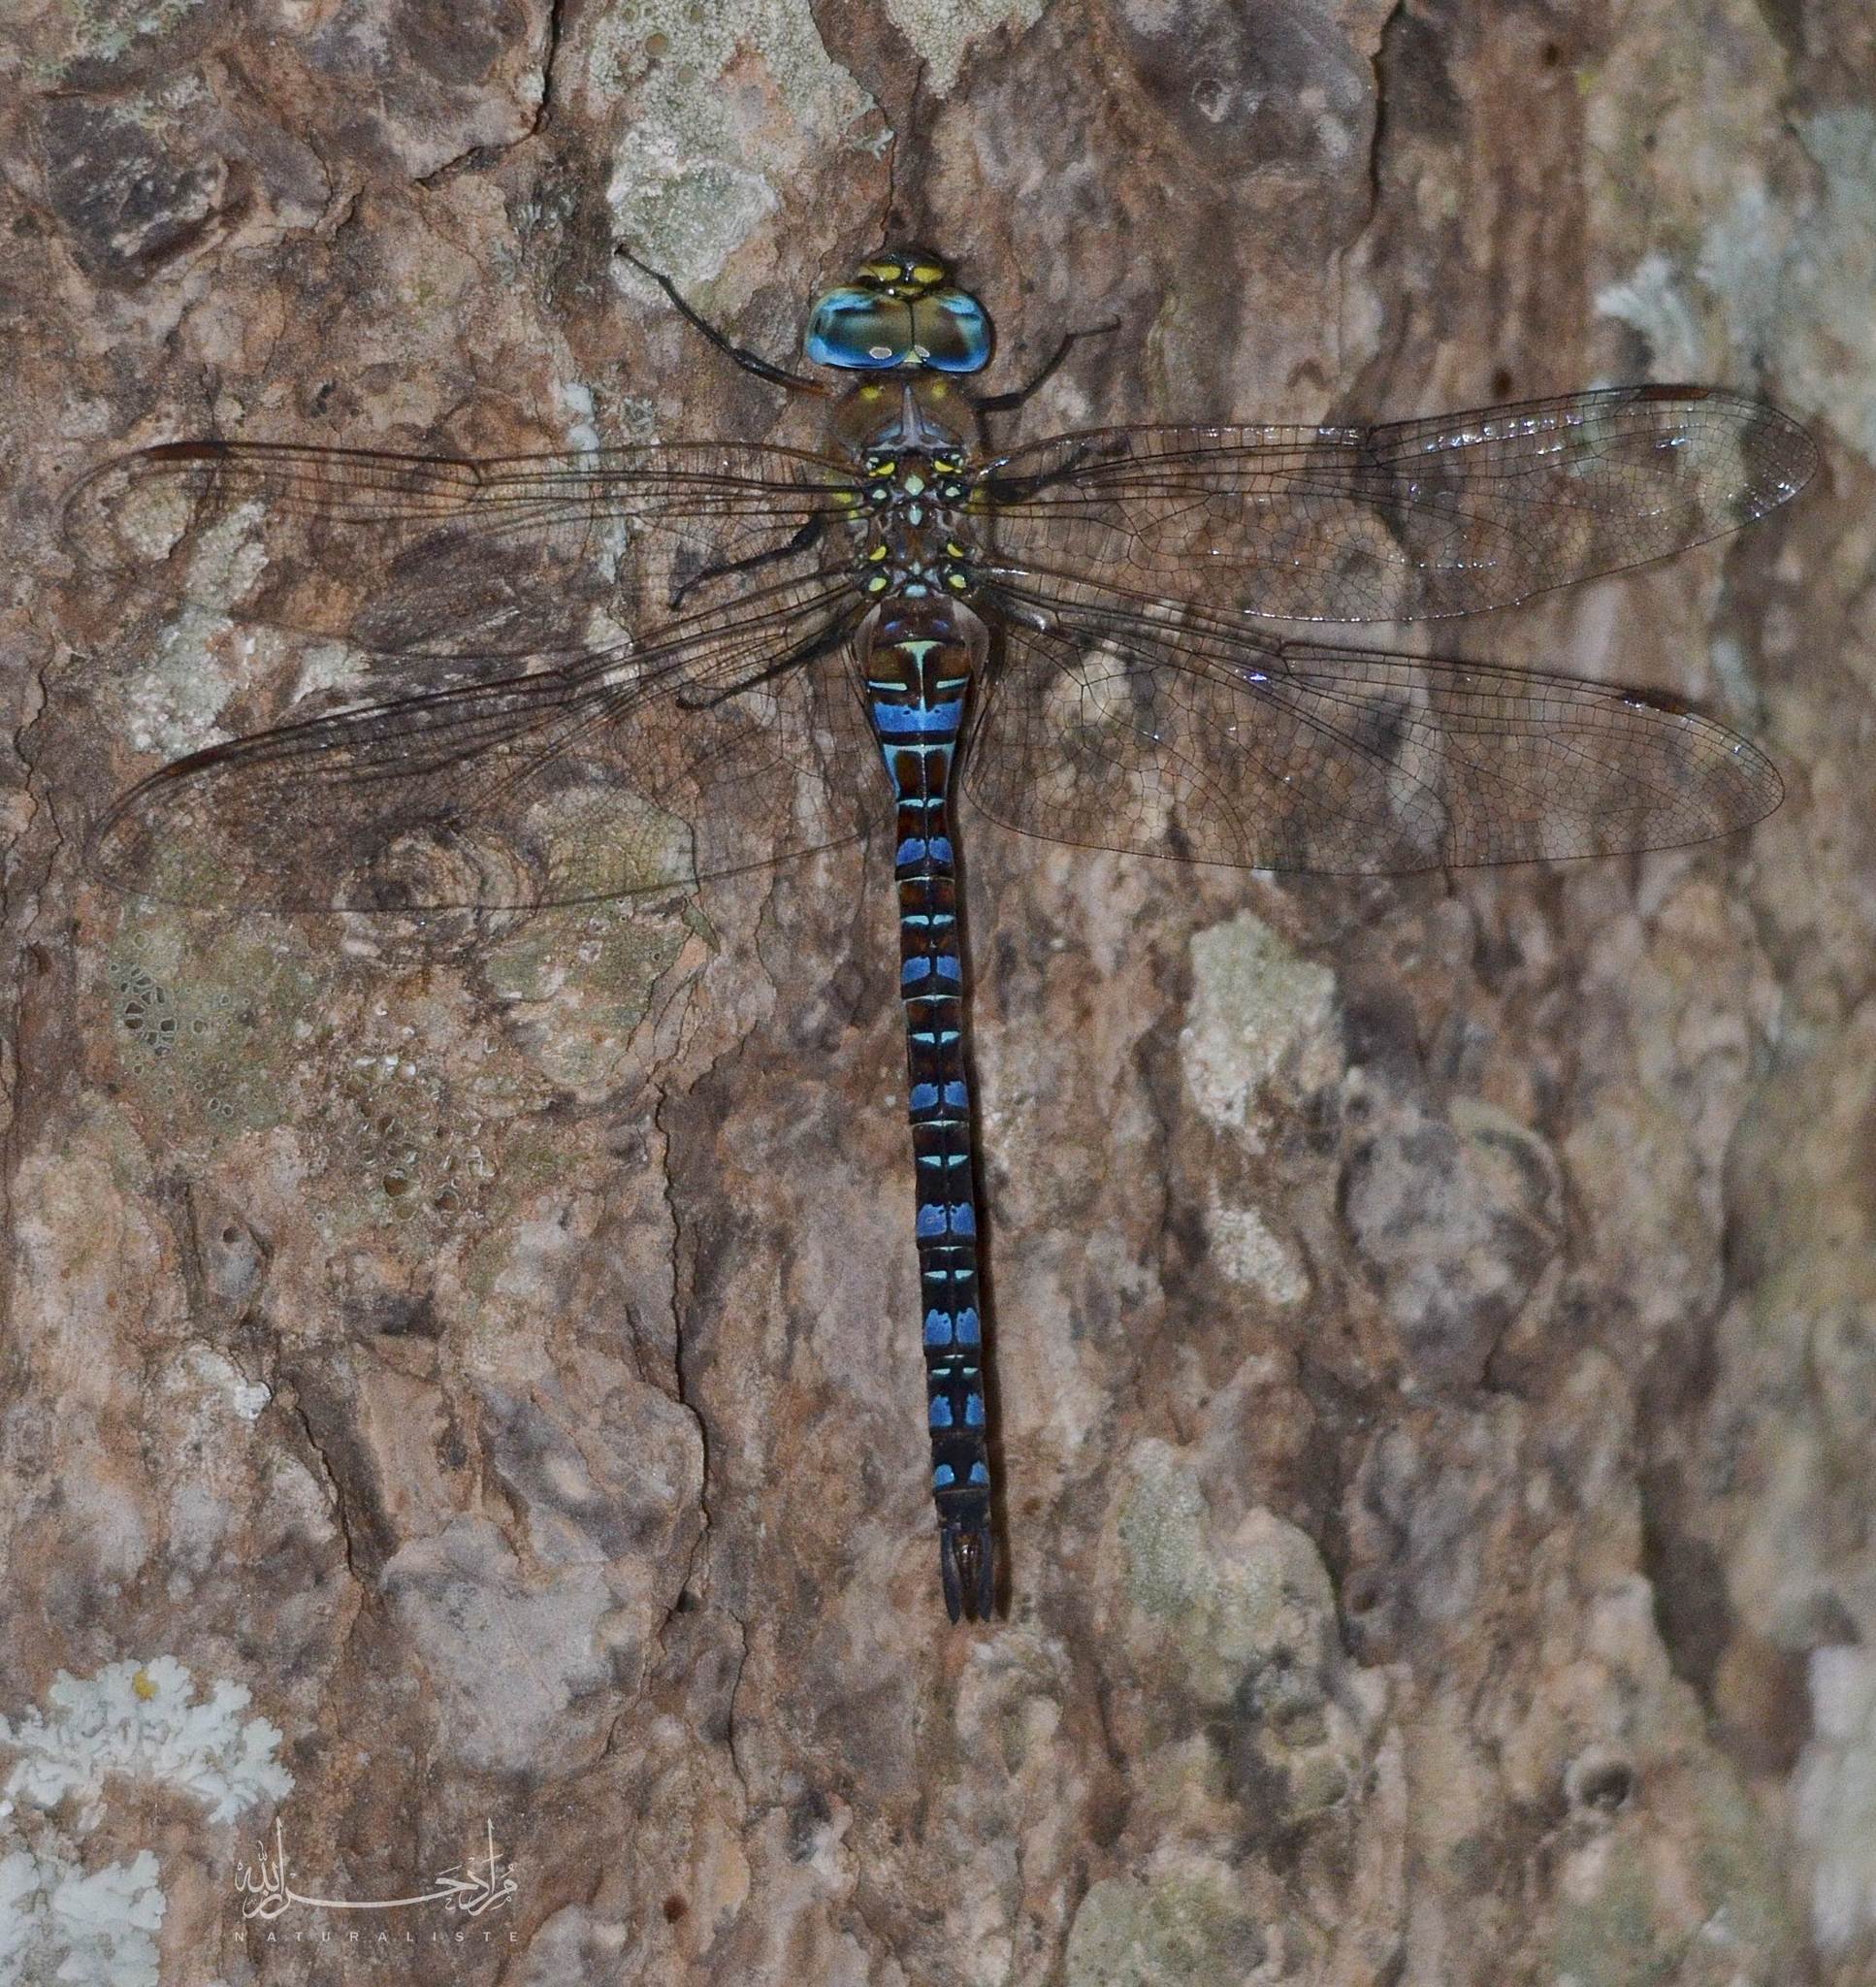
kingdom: Animalia
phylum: Arthropoda
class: Insecta
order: Odonata
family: Aeshnidae
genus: Aeshna
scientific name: Aeshna mixta
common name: Migrant hawker
